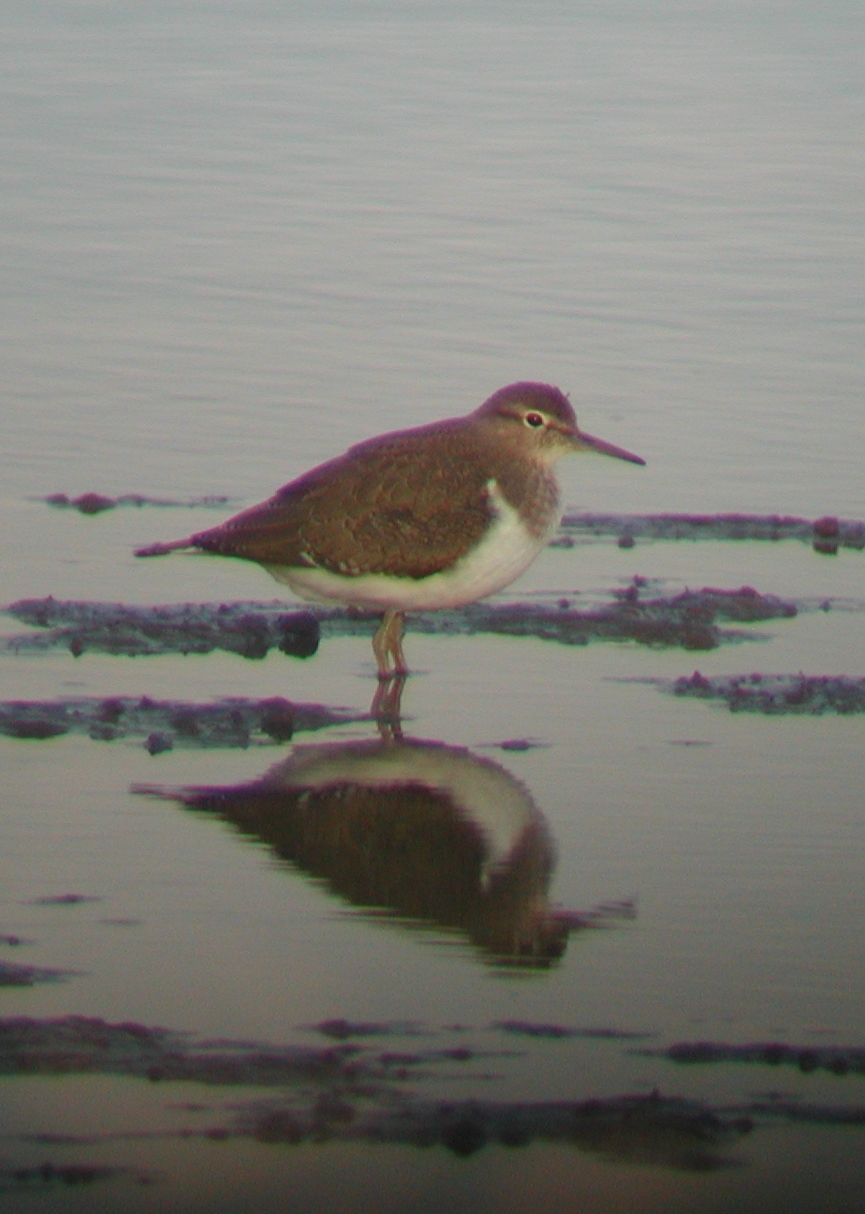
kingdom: Animalia
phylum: Chordata
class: Aves
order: Charadriiformes
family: Scolopacidae
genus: Actitis
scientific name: Actitis hypoleucos
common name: Common sandpiper
